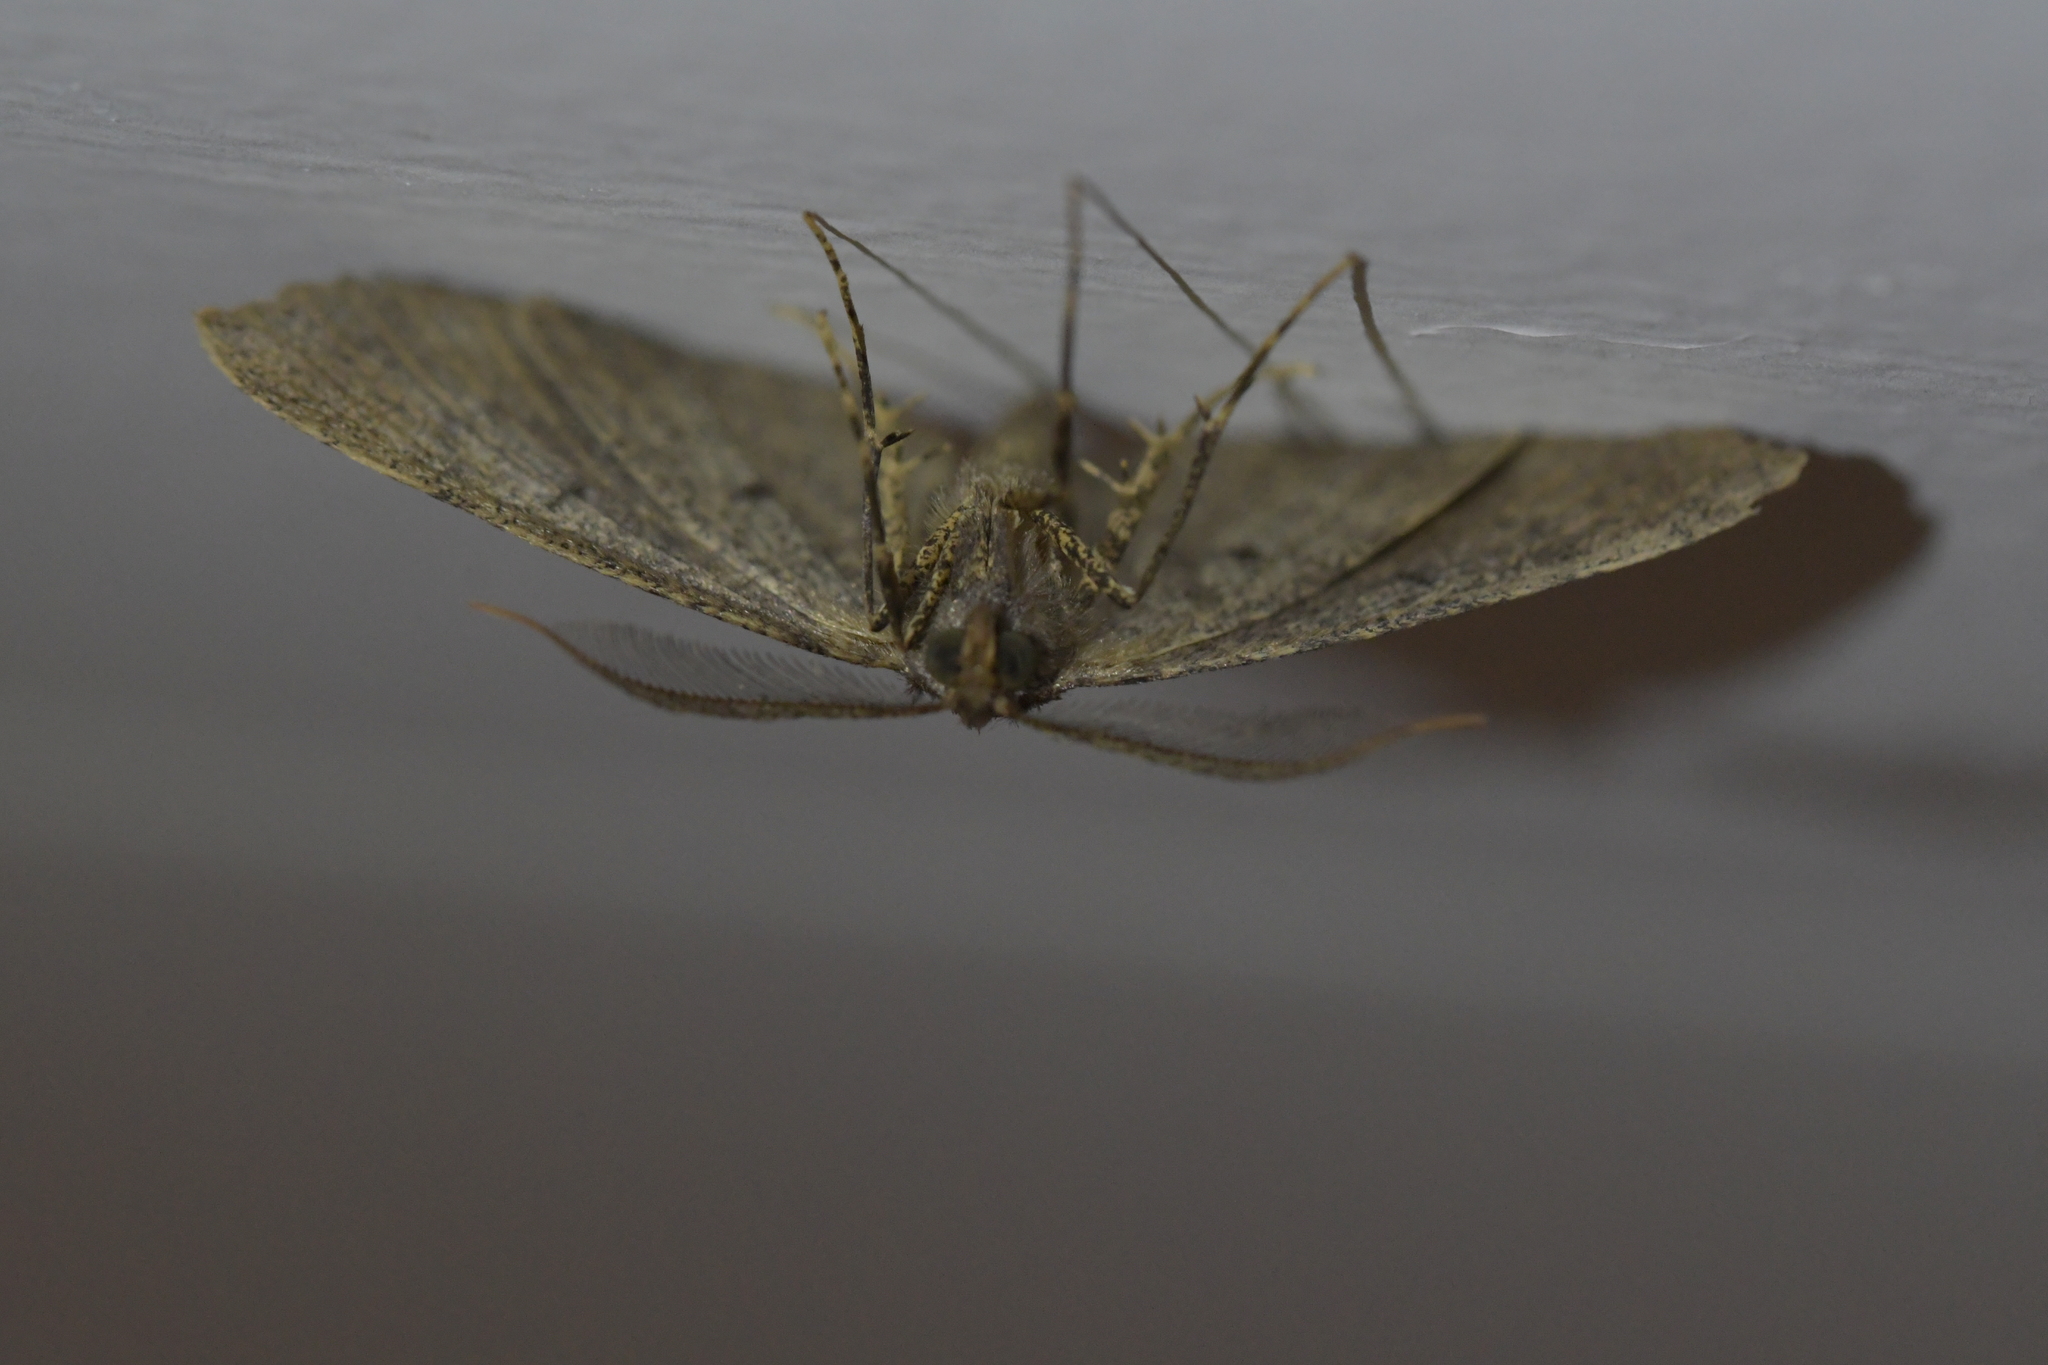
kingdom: Animalia
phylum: Arthropoda
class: Insecta
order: Lepidoptera
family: Geometridae
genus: Cleora
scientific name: Cleora scriptaria
